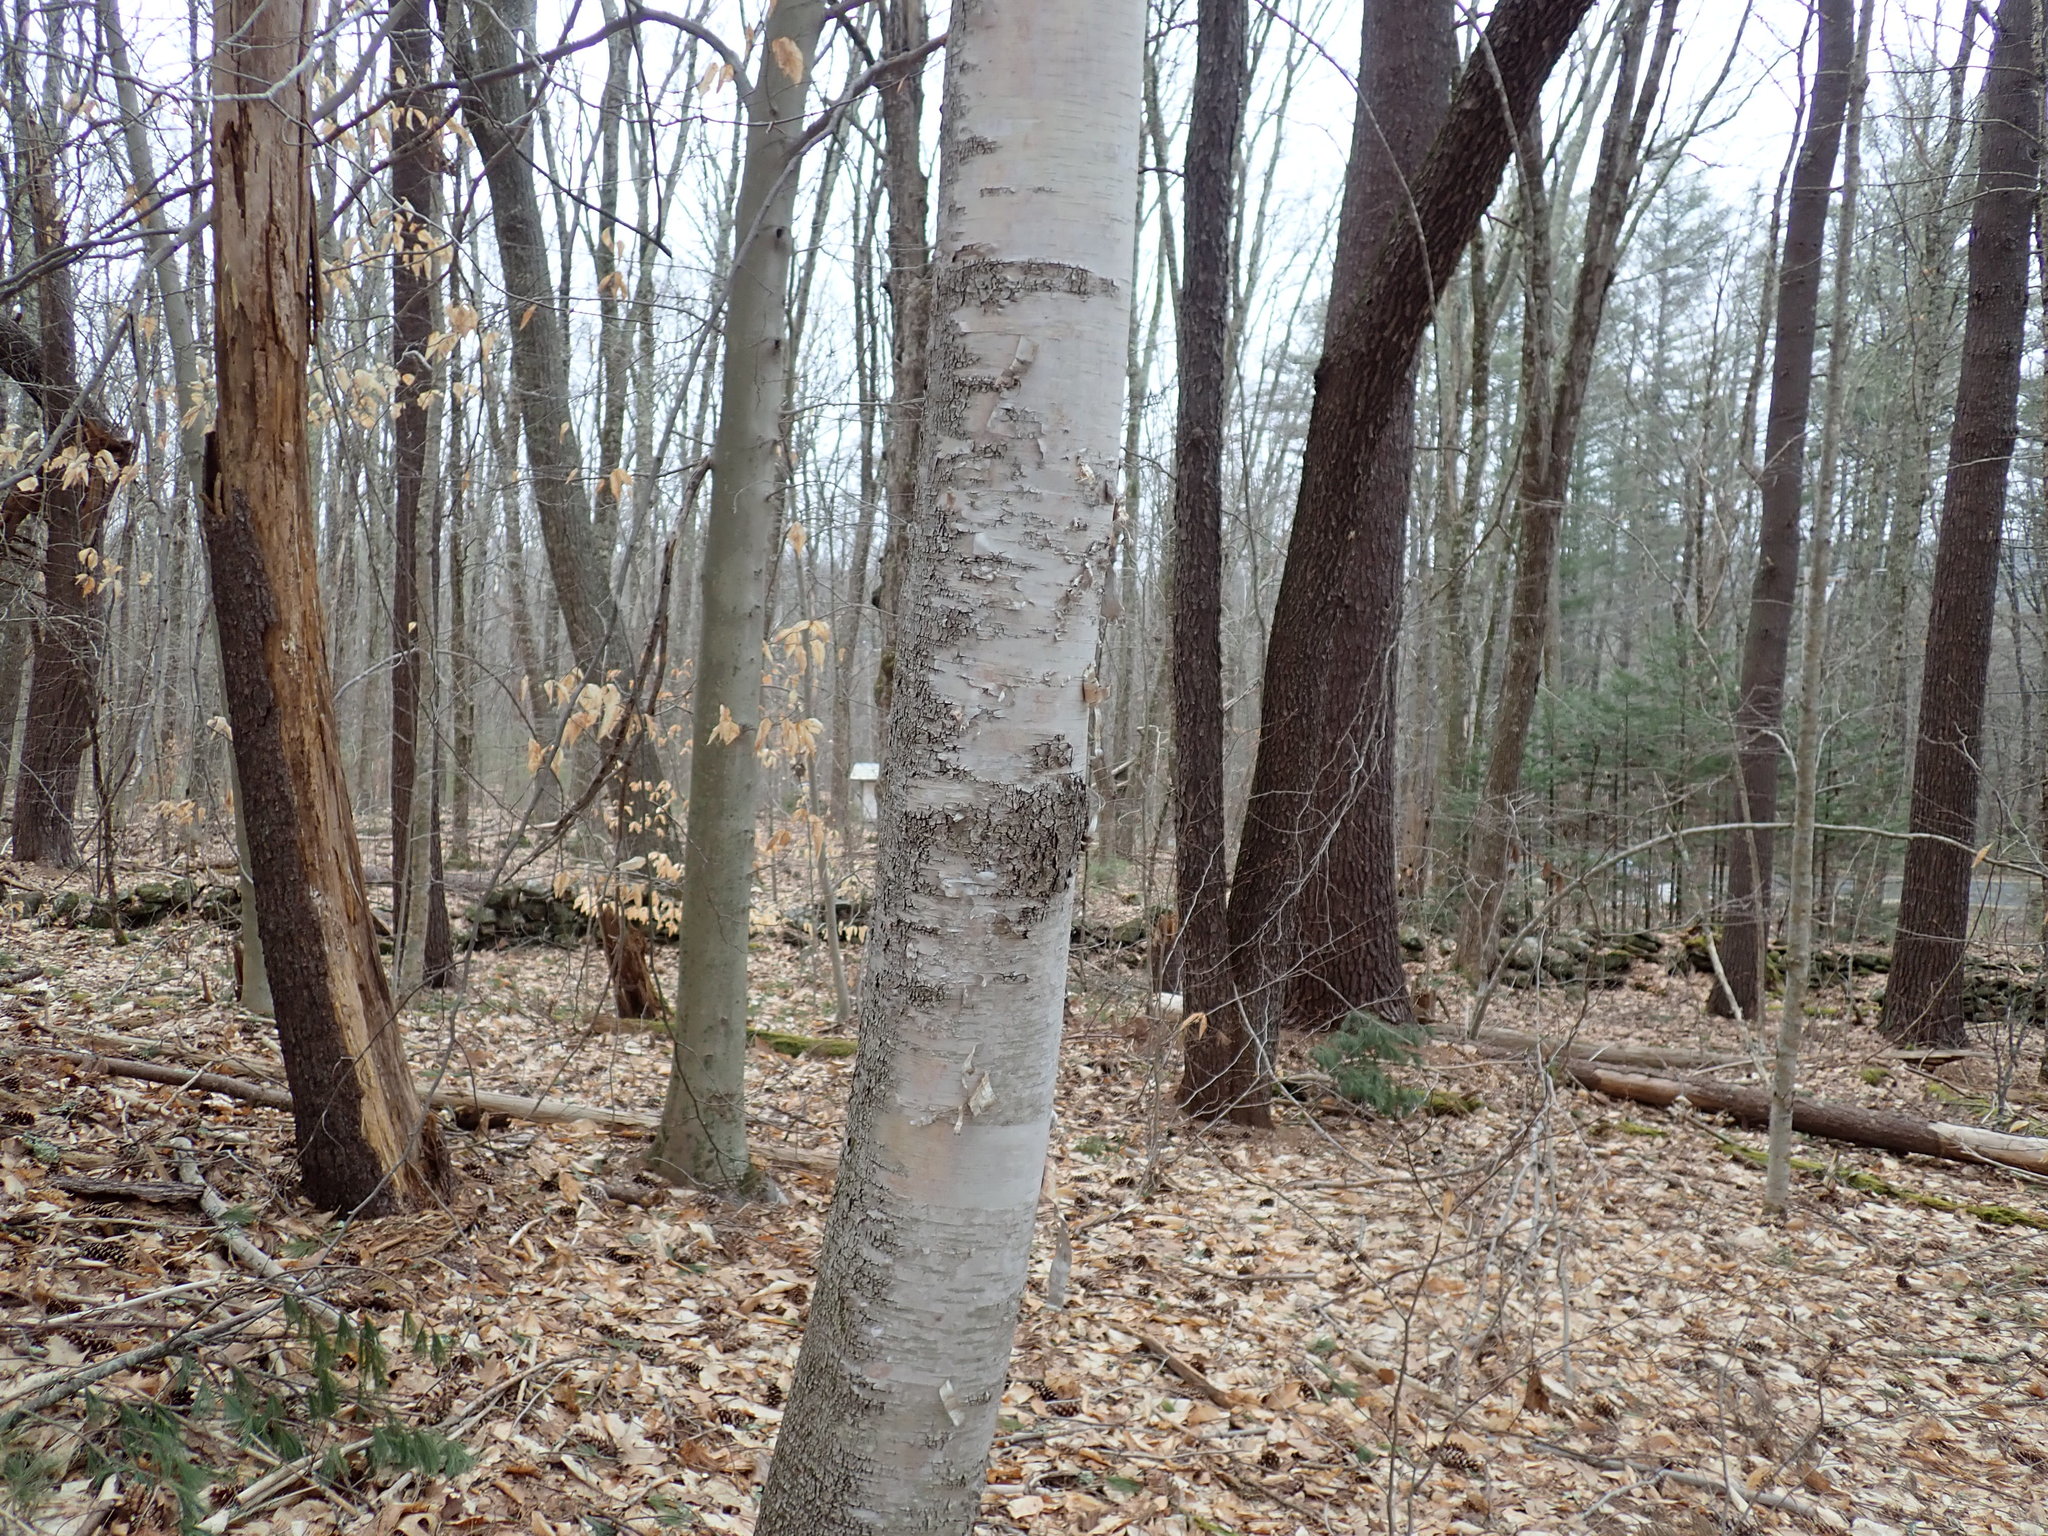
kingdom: Plantae
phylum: Tracheophyta
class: Magnoliopsida
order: Fagales
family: Betulaceae
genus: Betula
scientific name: Betula papyrifera
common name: Paper birch
